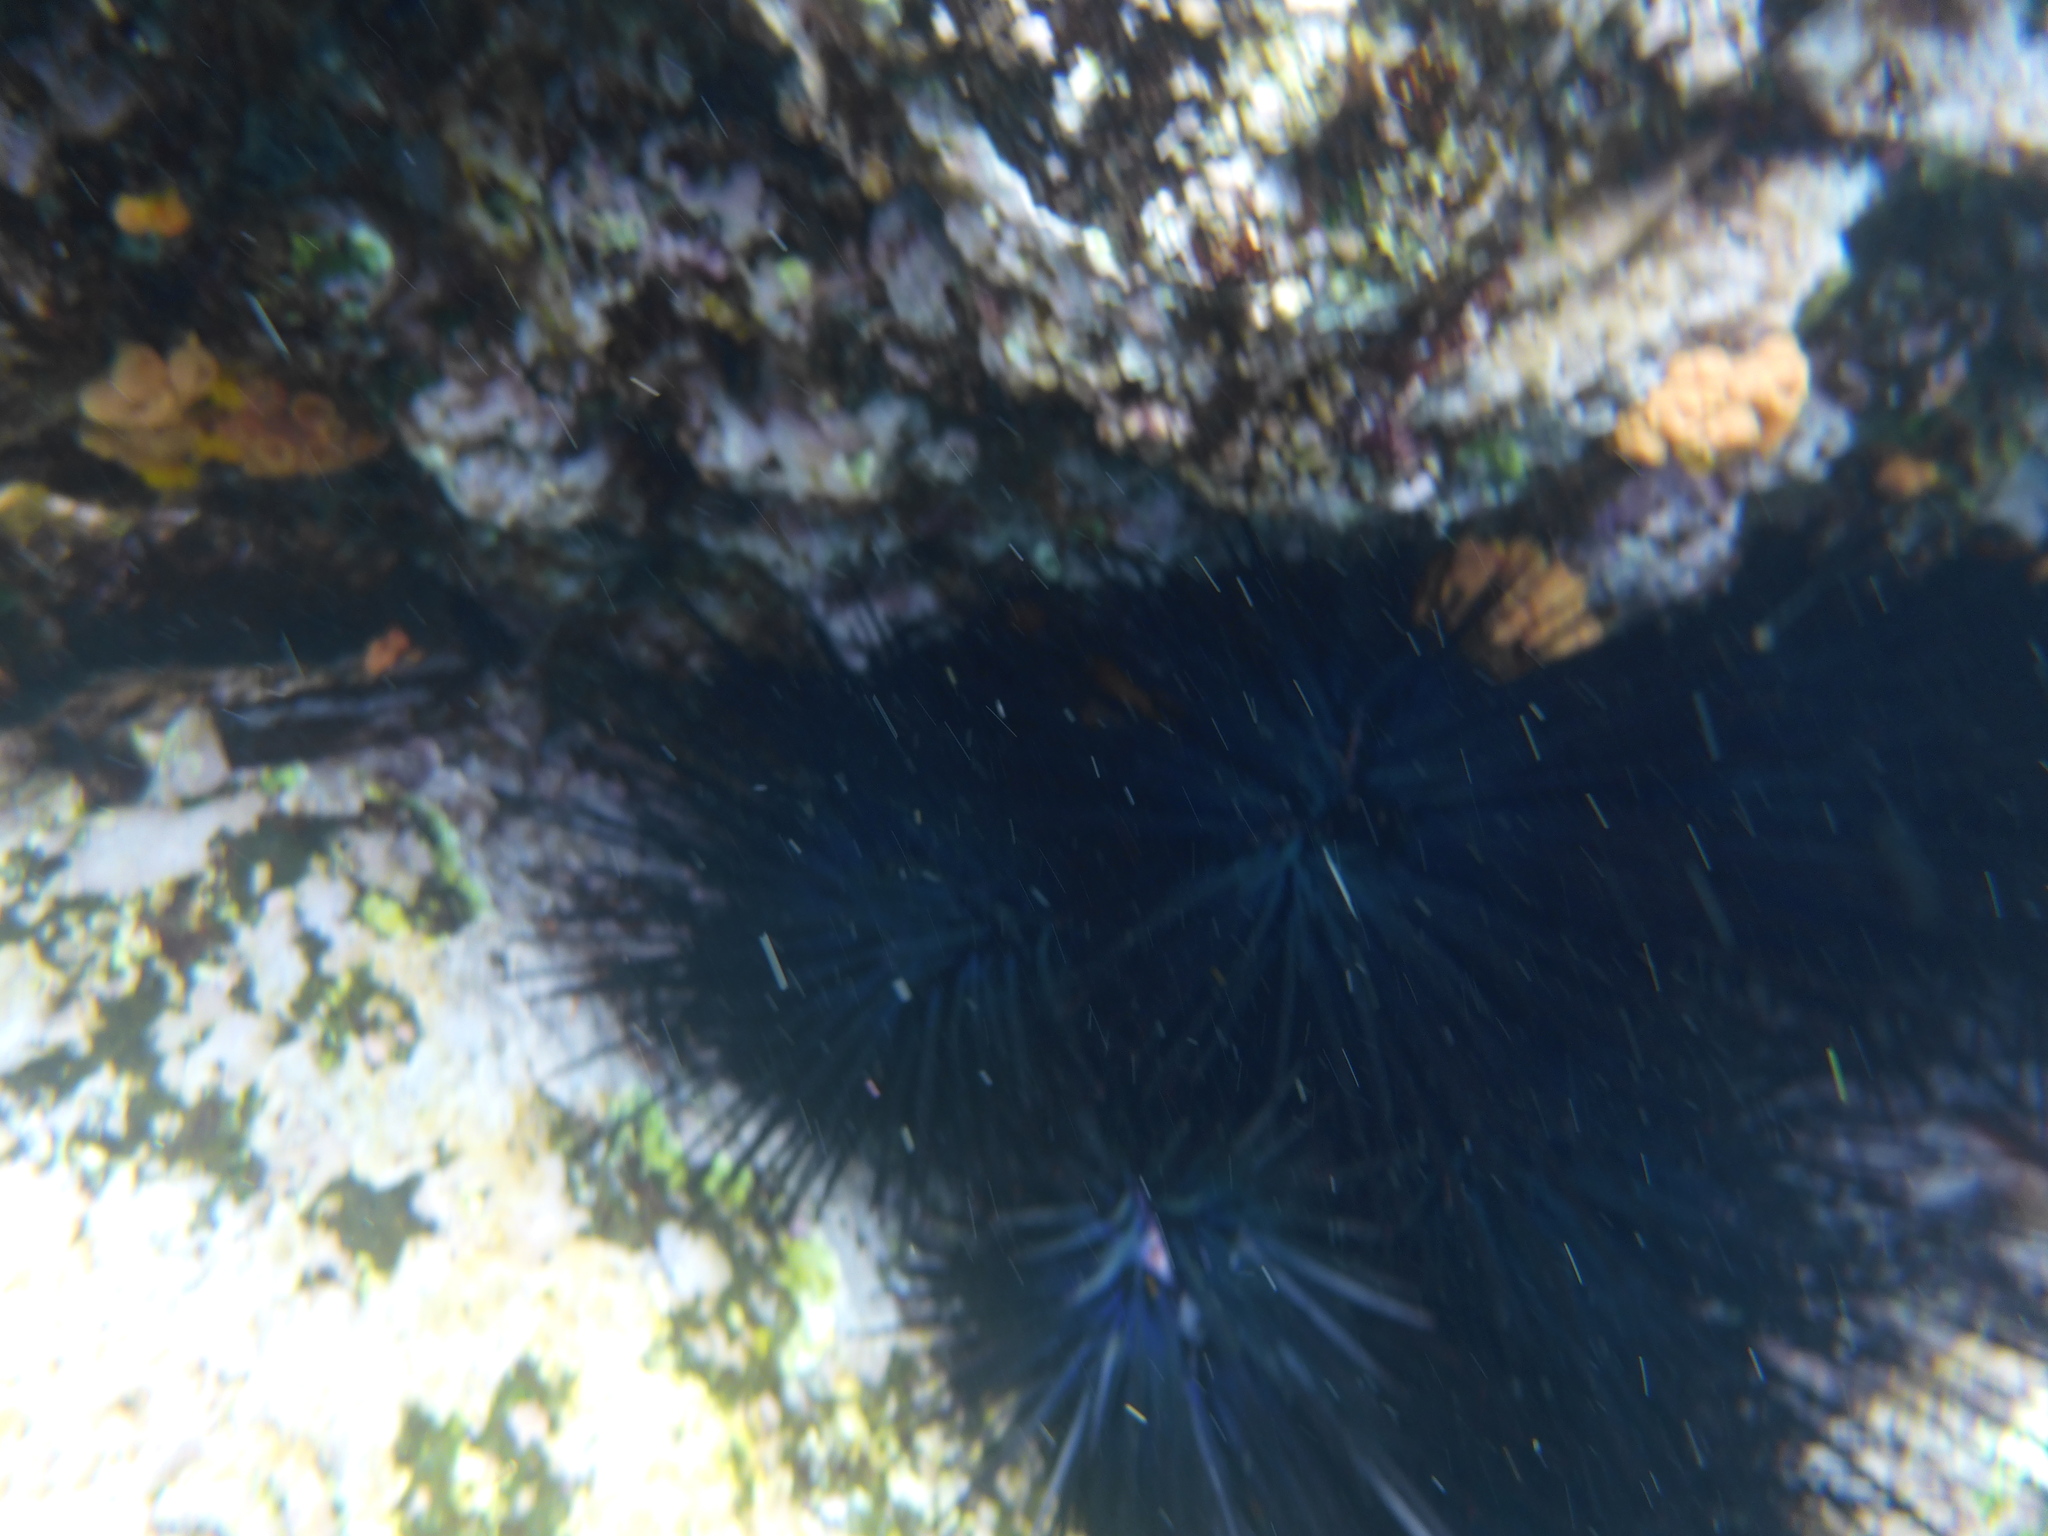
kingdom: Animalia
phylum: Echinodermata
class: Echinoidea
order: Diadematoida
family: Diadematidae
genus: Centrostephanus
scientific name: Centrostephanus coronatus
